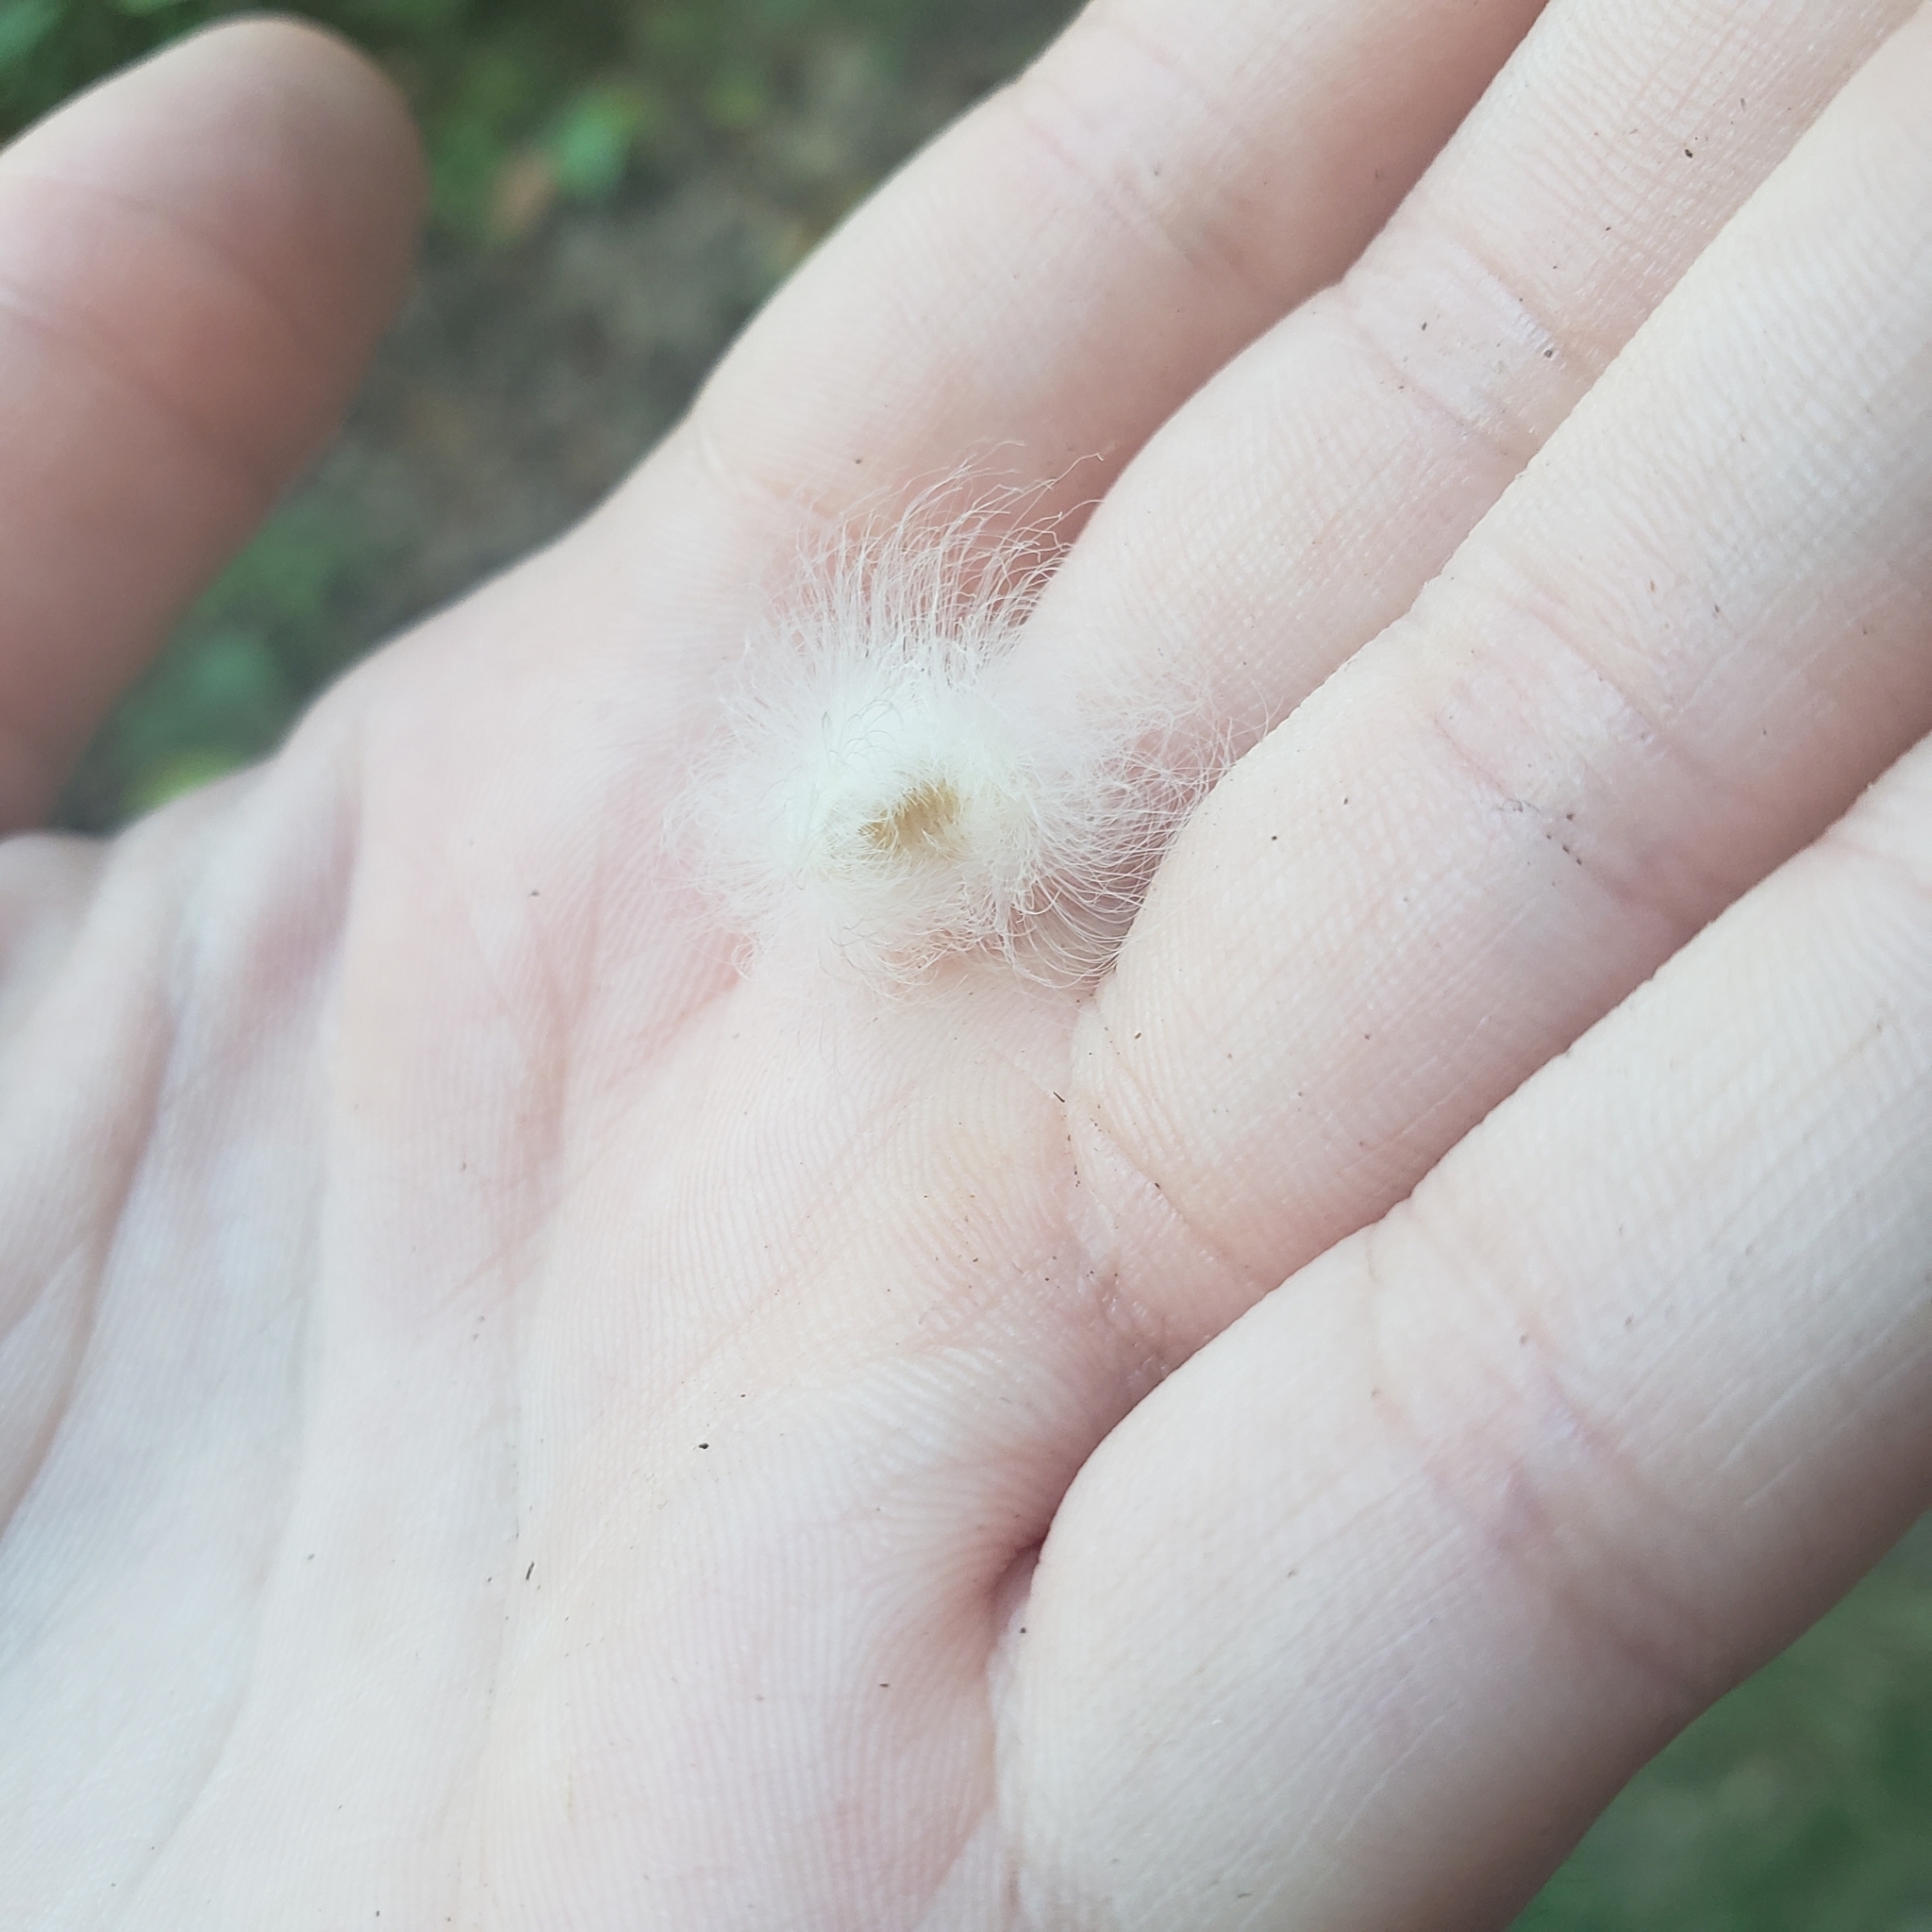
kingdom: Animalia
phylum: Arthropoda
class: Insecta
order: Lepidoptera
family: Megalopygidae
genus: Megalopyge
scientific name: Megalopyge crispata
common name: Black-waved flannel moth
